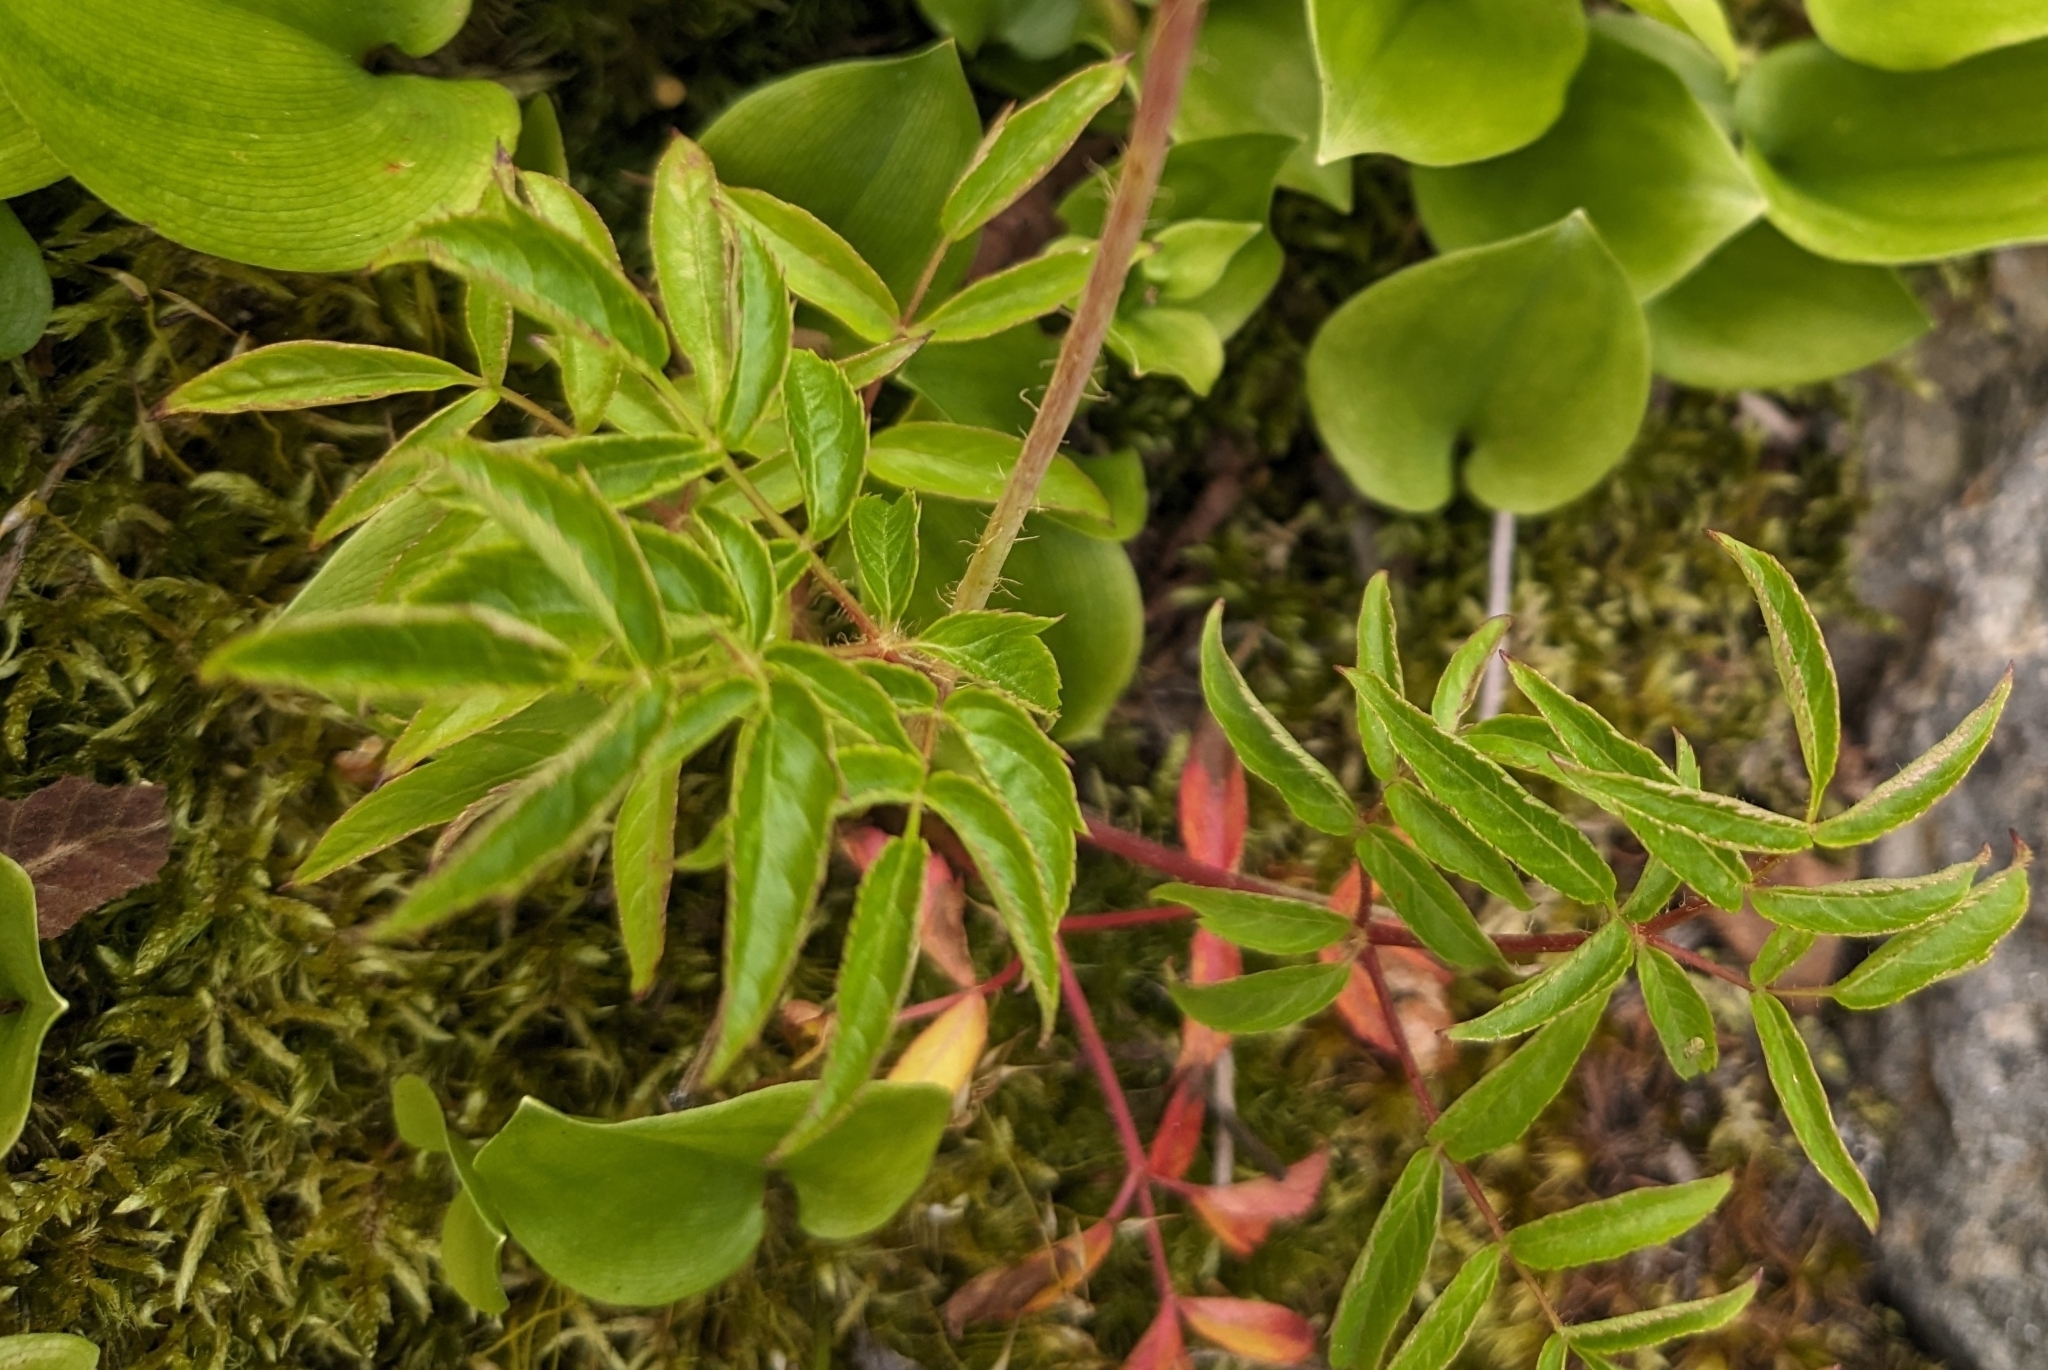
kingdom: Plantae
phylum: Tracheophyta
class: Magnoliopsida
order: Apiales
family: Araliaceae
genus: Aralia
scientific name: Aralia hispida
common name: Bristly sarsaparilla
